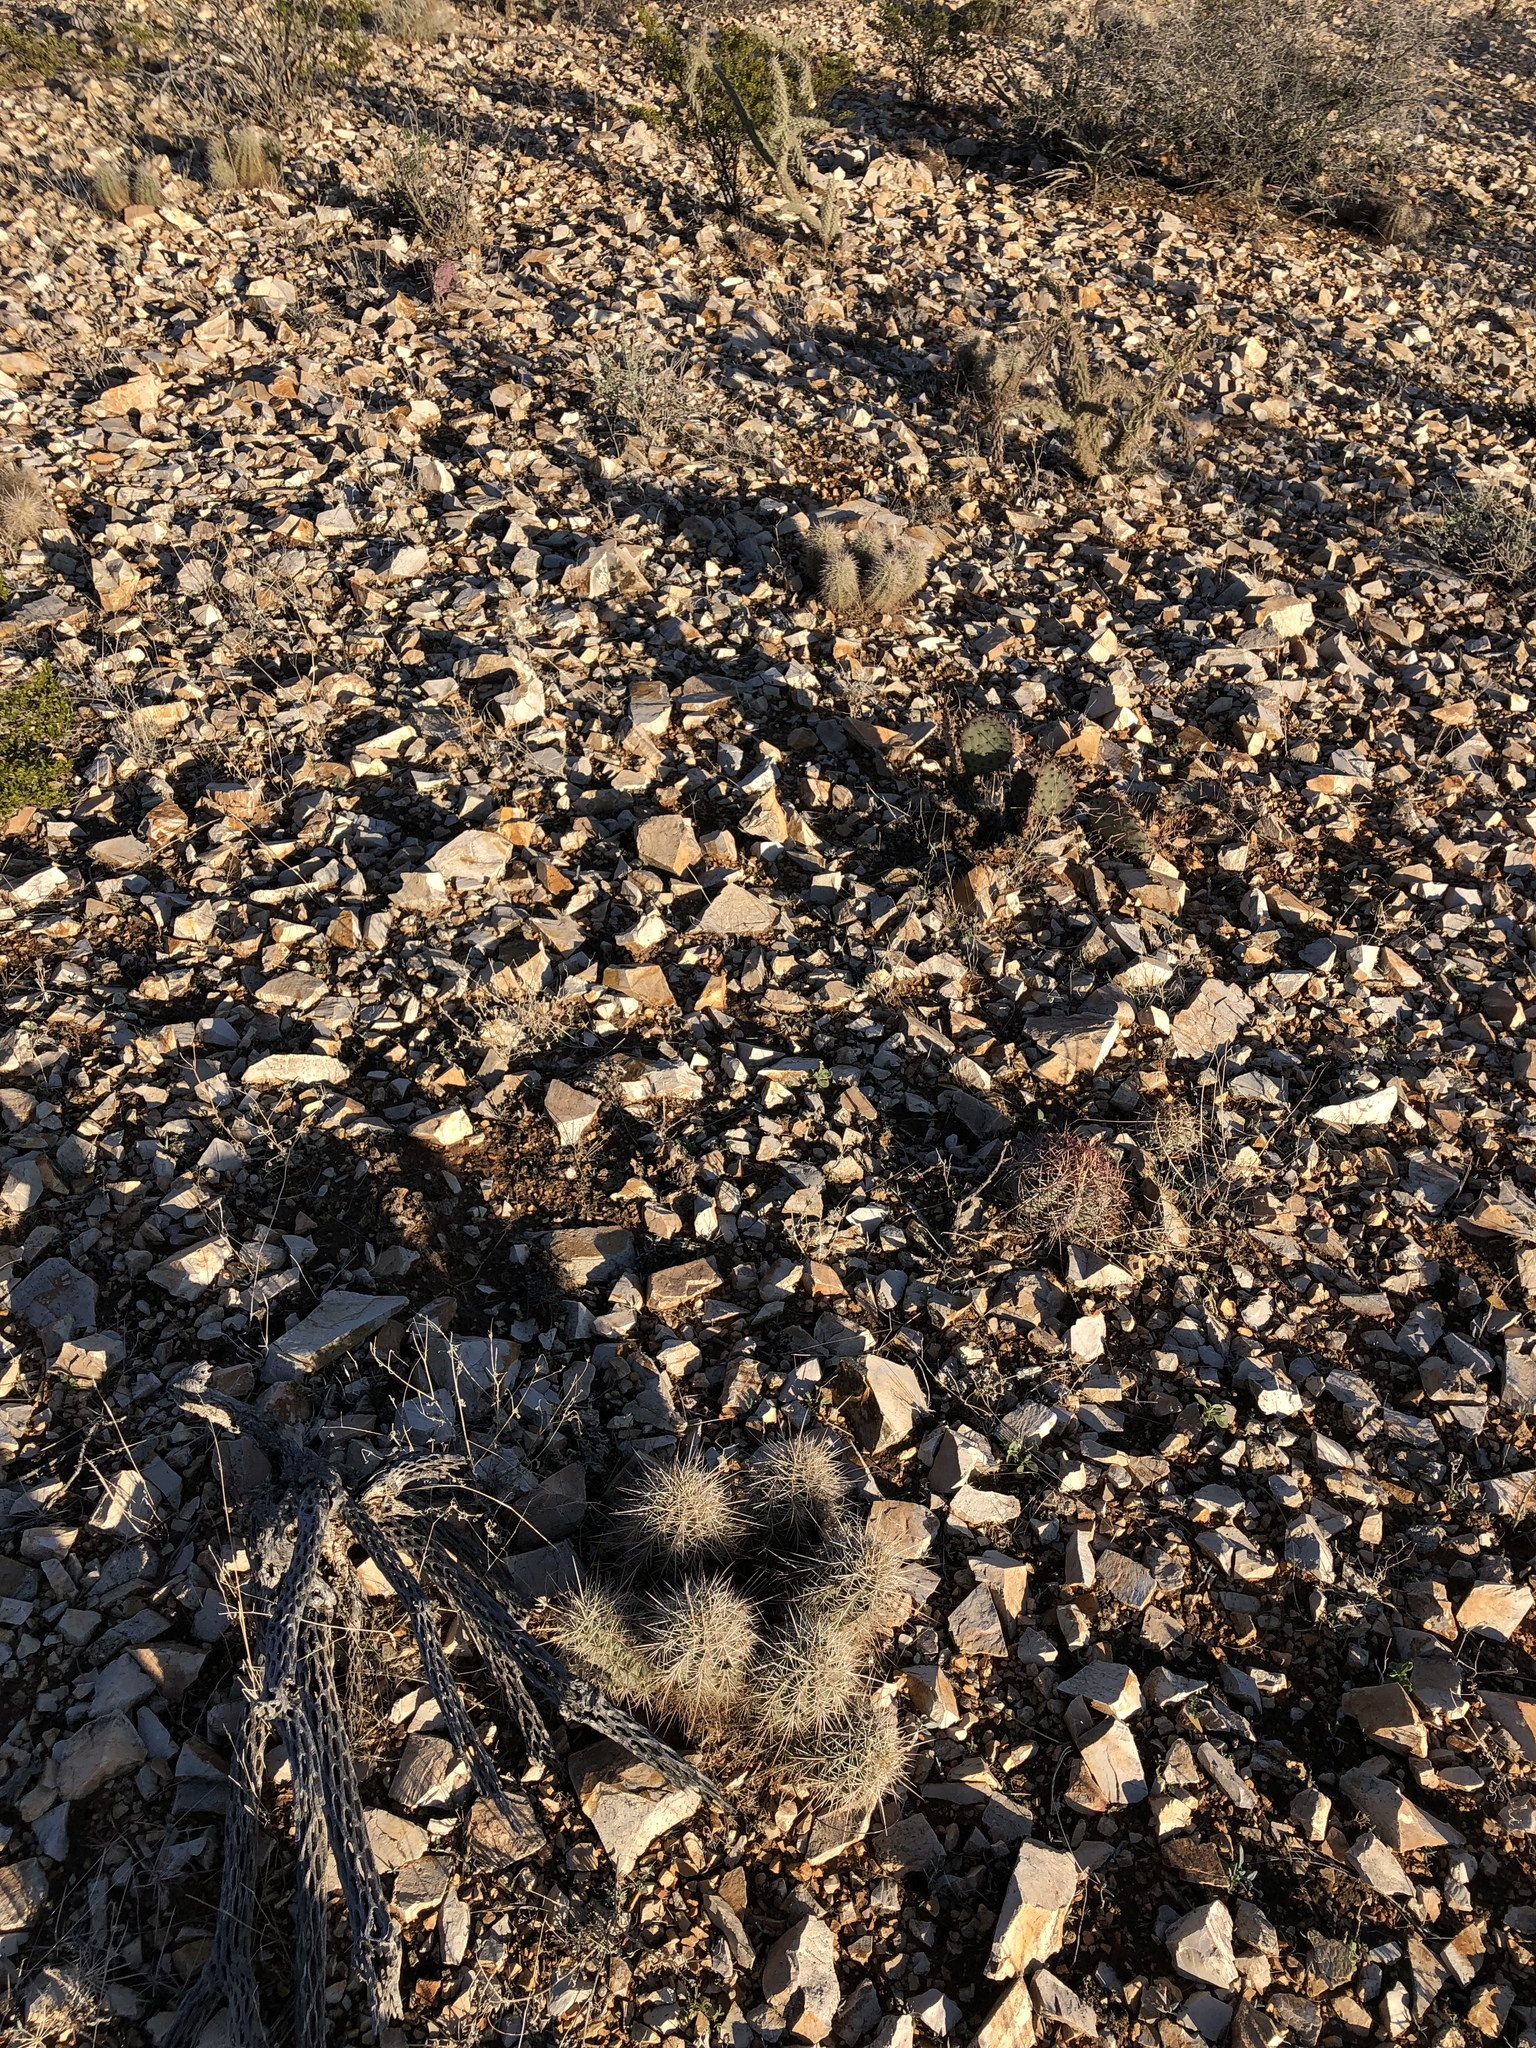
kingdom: Plantae
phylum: Tracheophyta
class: Magnoliopsida
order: Caryophyllales
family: Cactaceae
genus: Echinocereus
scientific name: Echinocereus coccineus
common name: Scarlet hedgehog cactus
